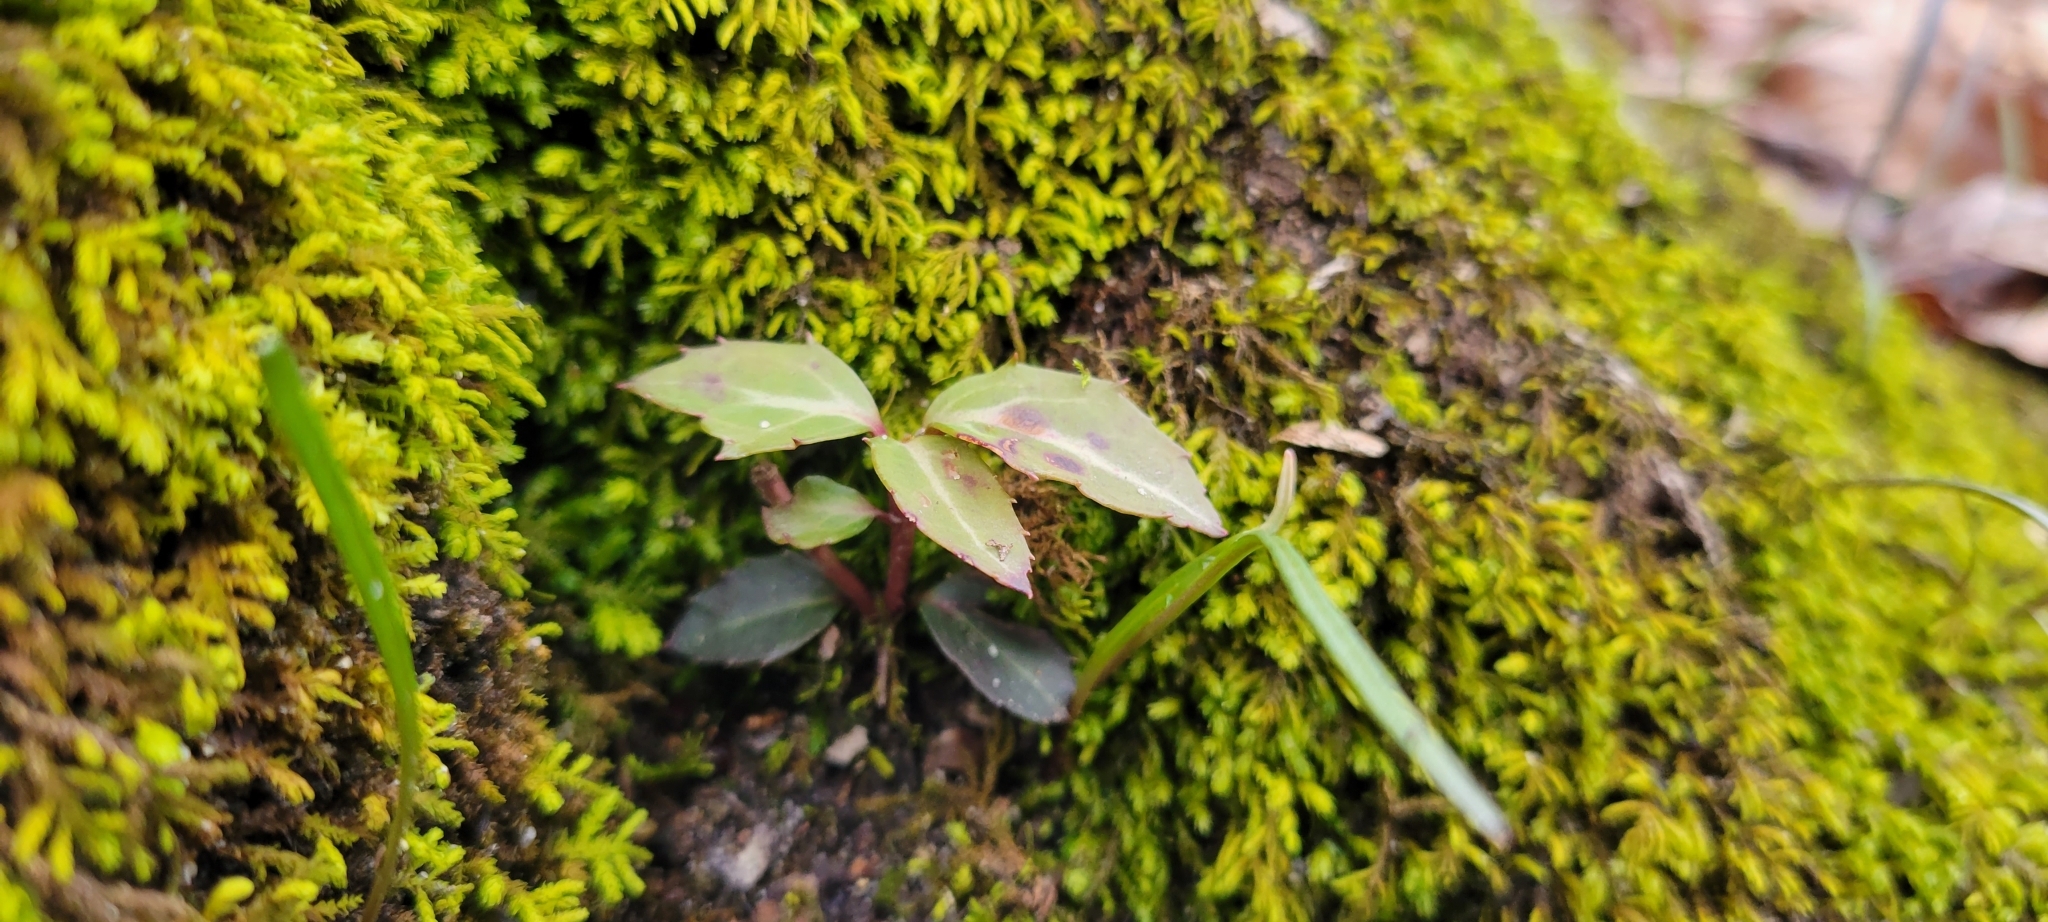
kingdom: Plantae
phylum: Tracheophyta
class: Magnoliopsida
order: Ericales
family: Ericaceae
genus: Chimaphila
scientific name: Chimaphila maculata
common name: Spotted pipsissewa
